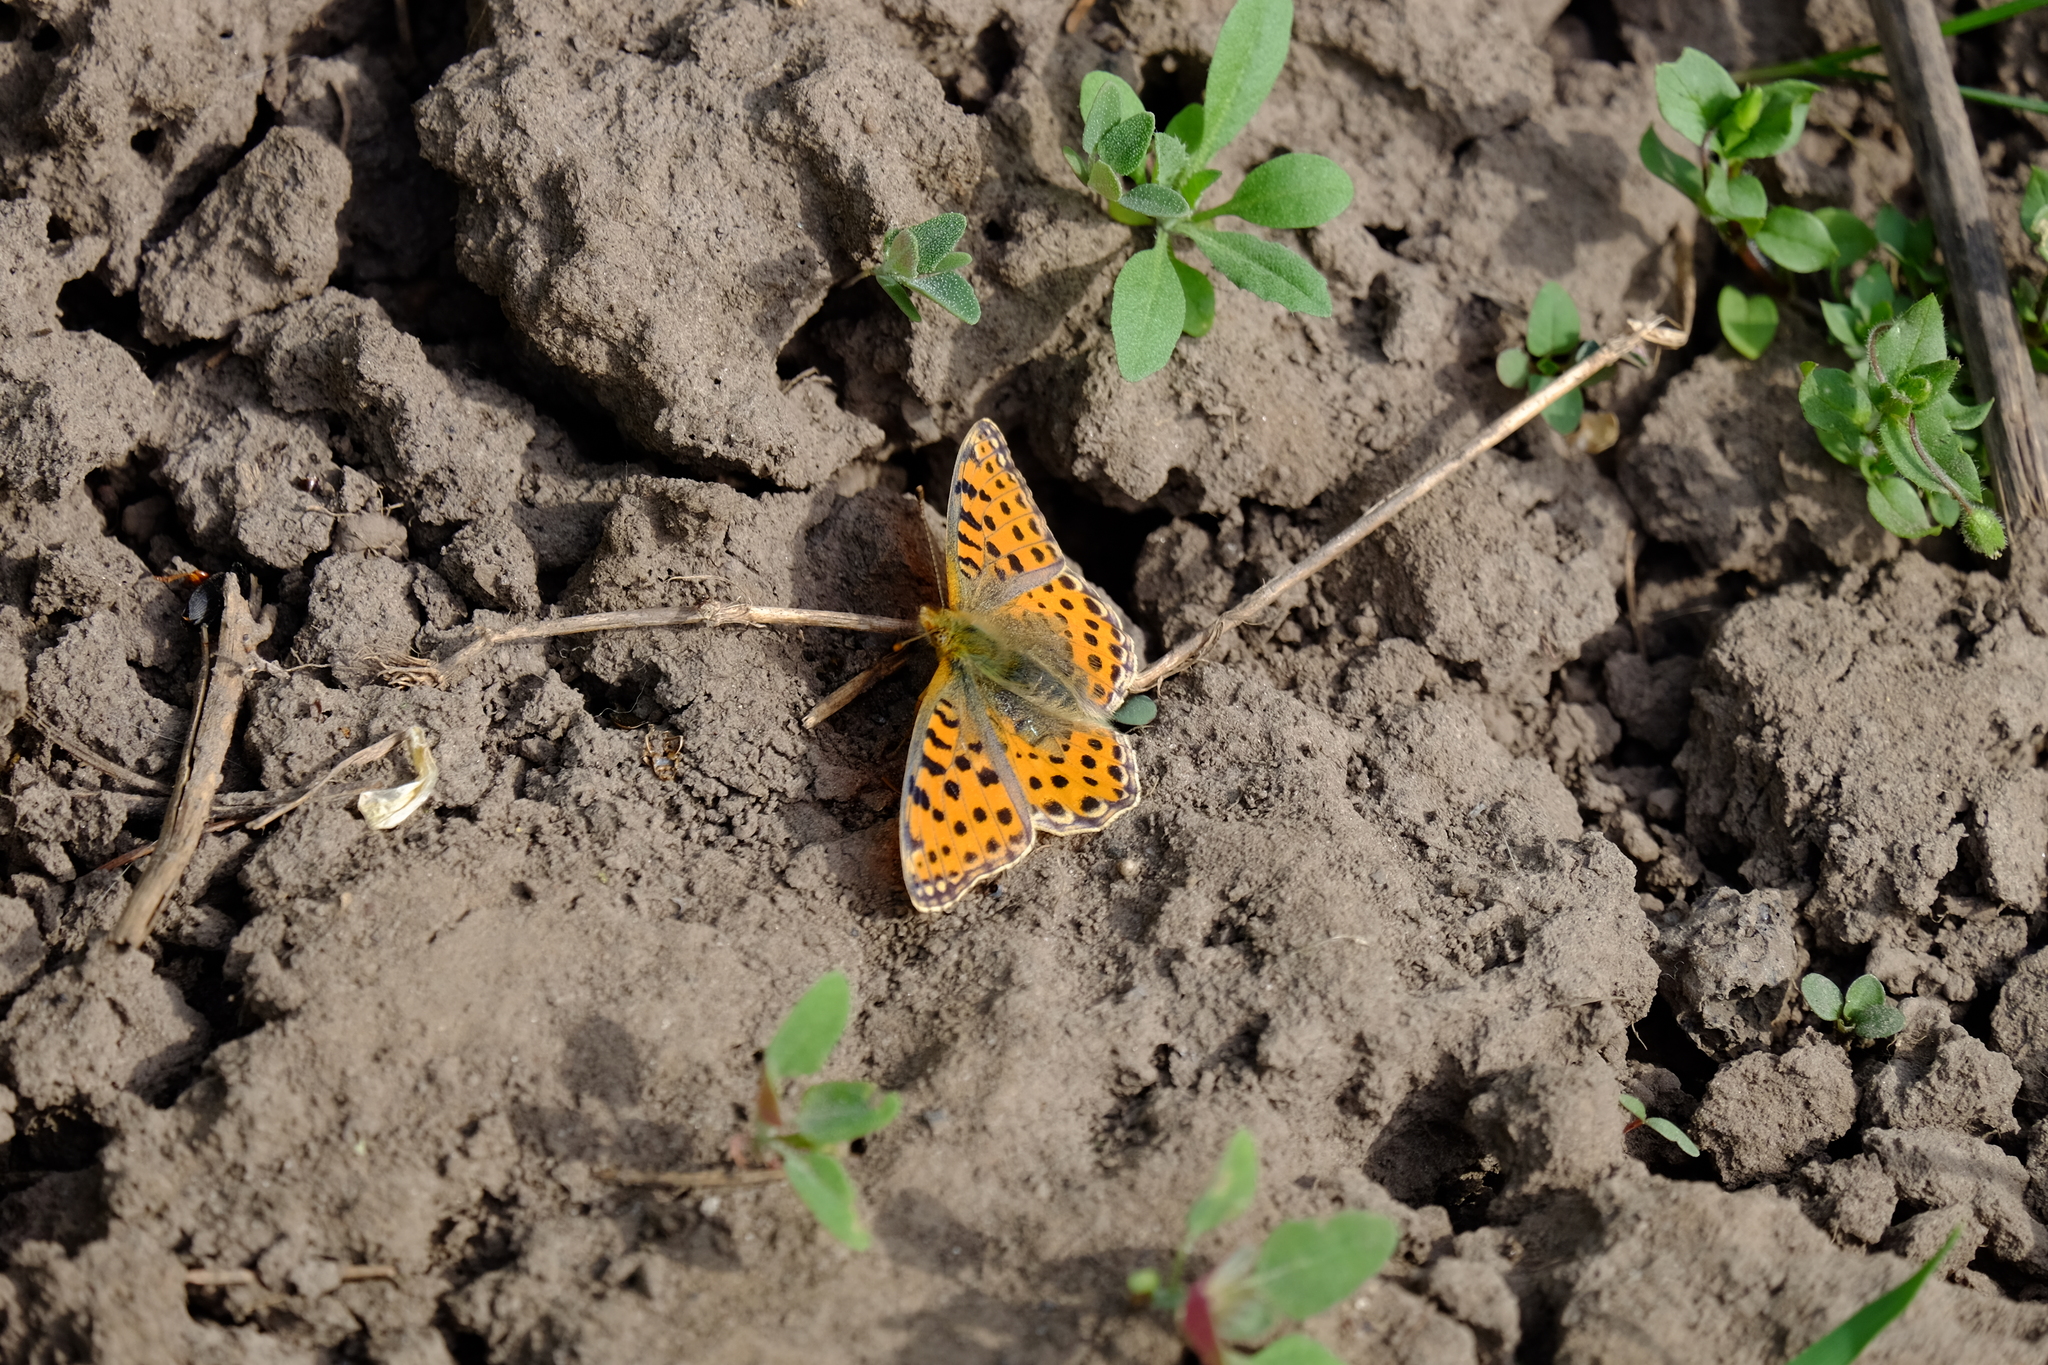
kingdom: Animalia
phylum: Arthropoda
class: Insecta
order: Lepidoptera
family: Nymphalidae
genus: Issoria
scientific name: Issoria lathonia
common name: Queen of spain fritillary
